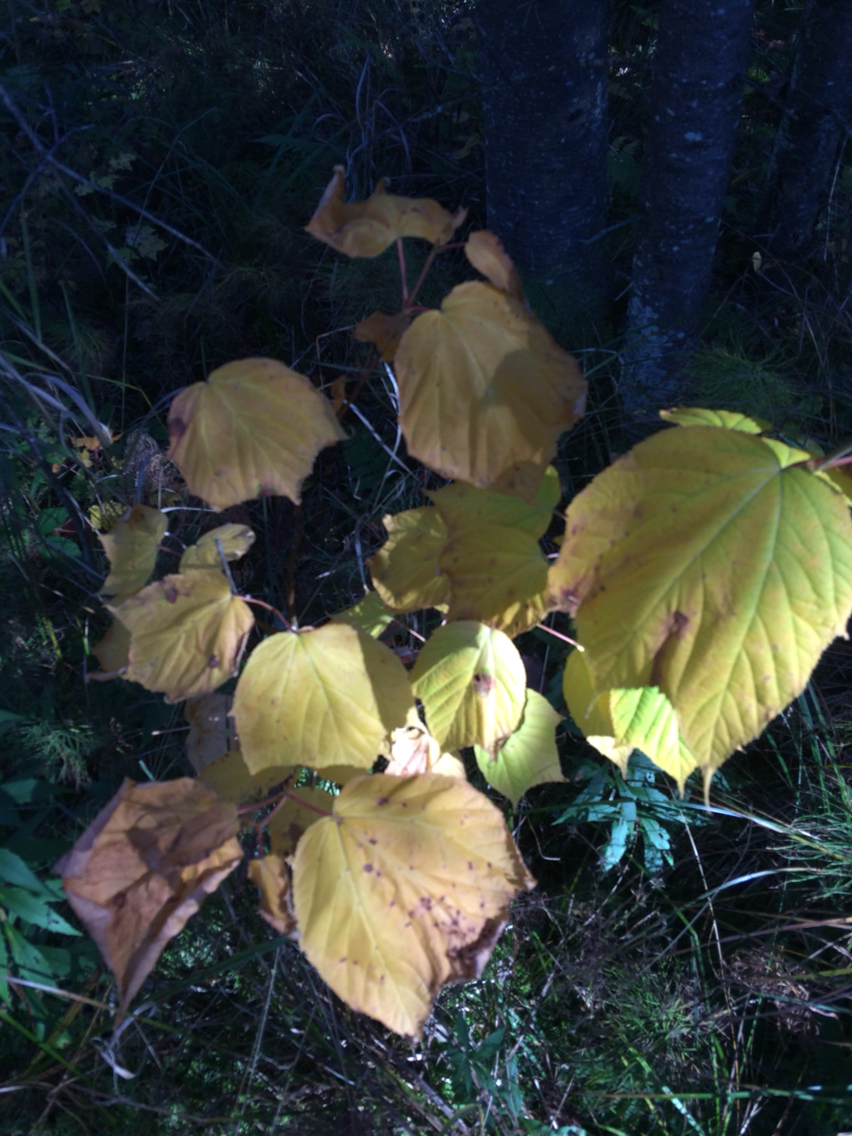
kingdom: Plantae
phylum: Tracheophyta
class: Magnoliopsida
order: Sapindales
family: Sapindaceae
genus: Acer
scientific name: Acer pensylvanicum
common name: Moosewood
